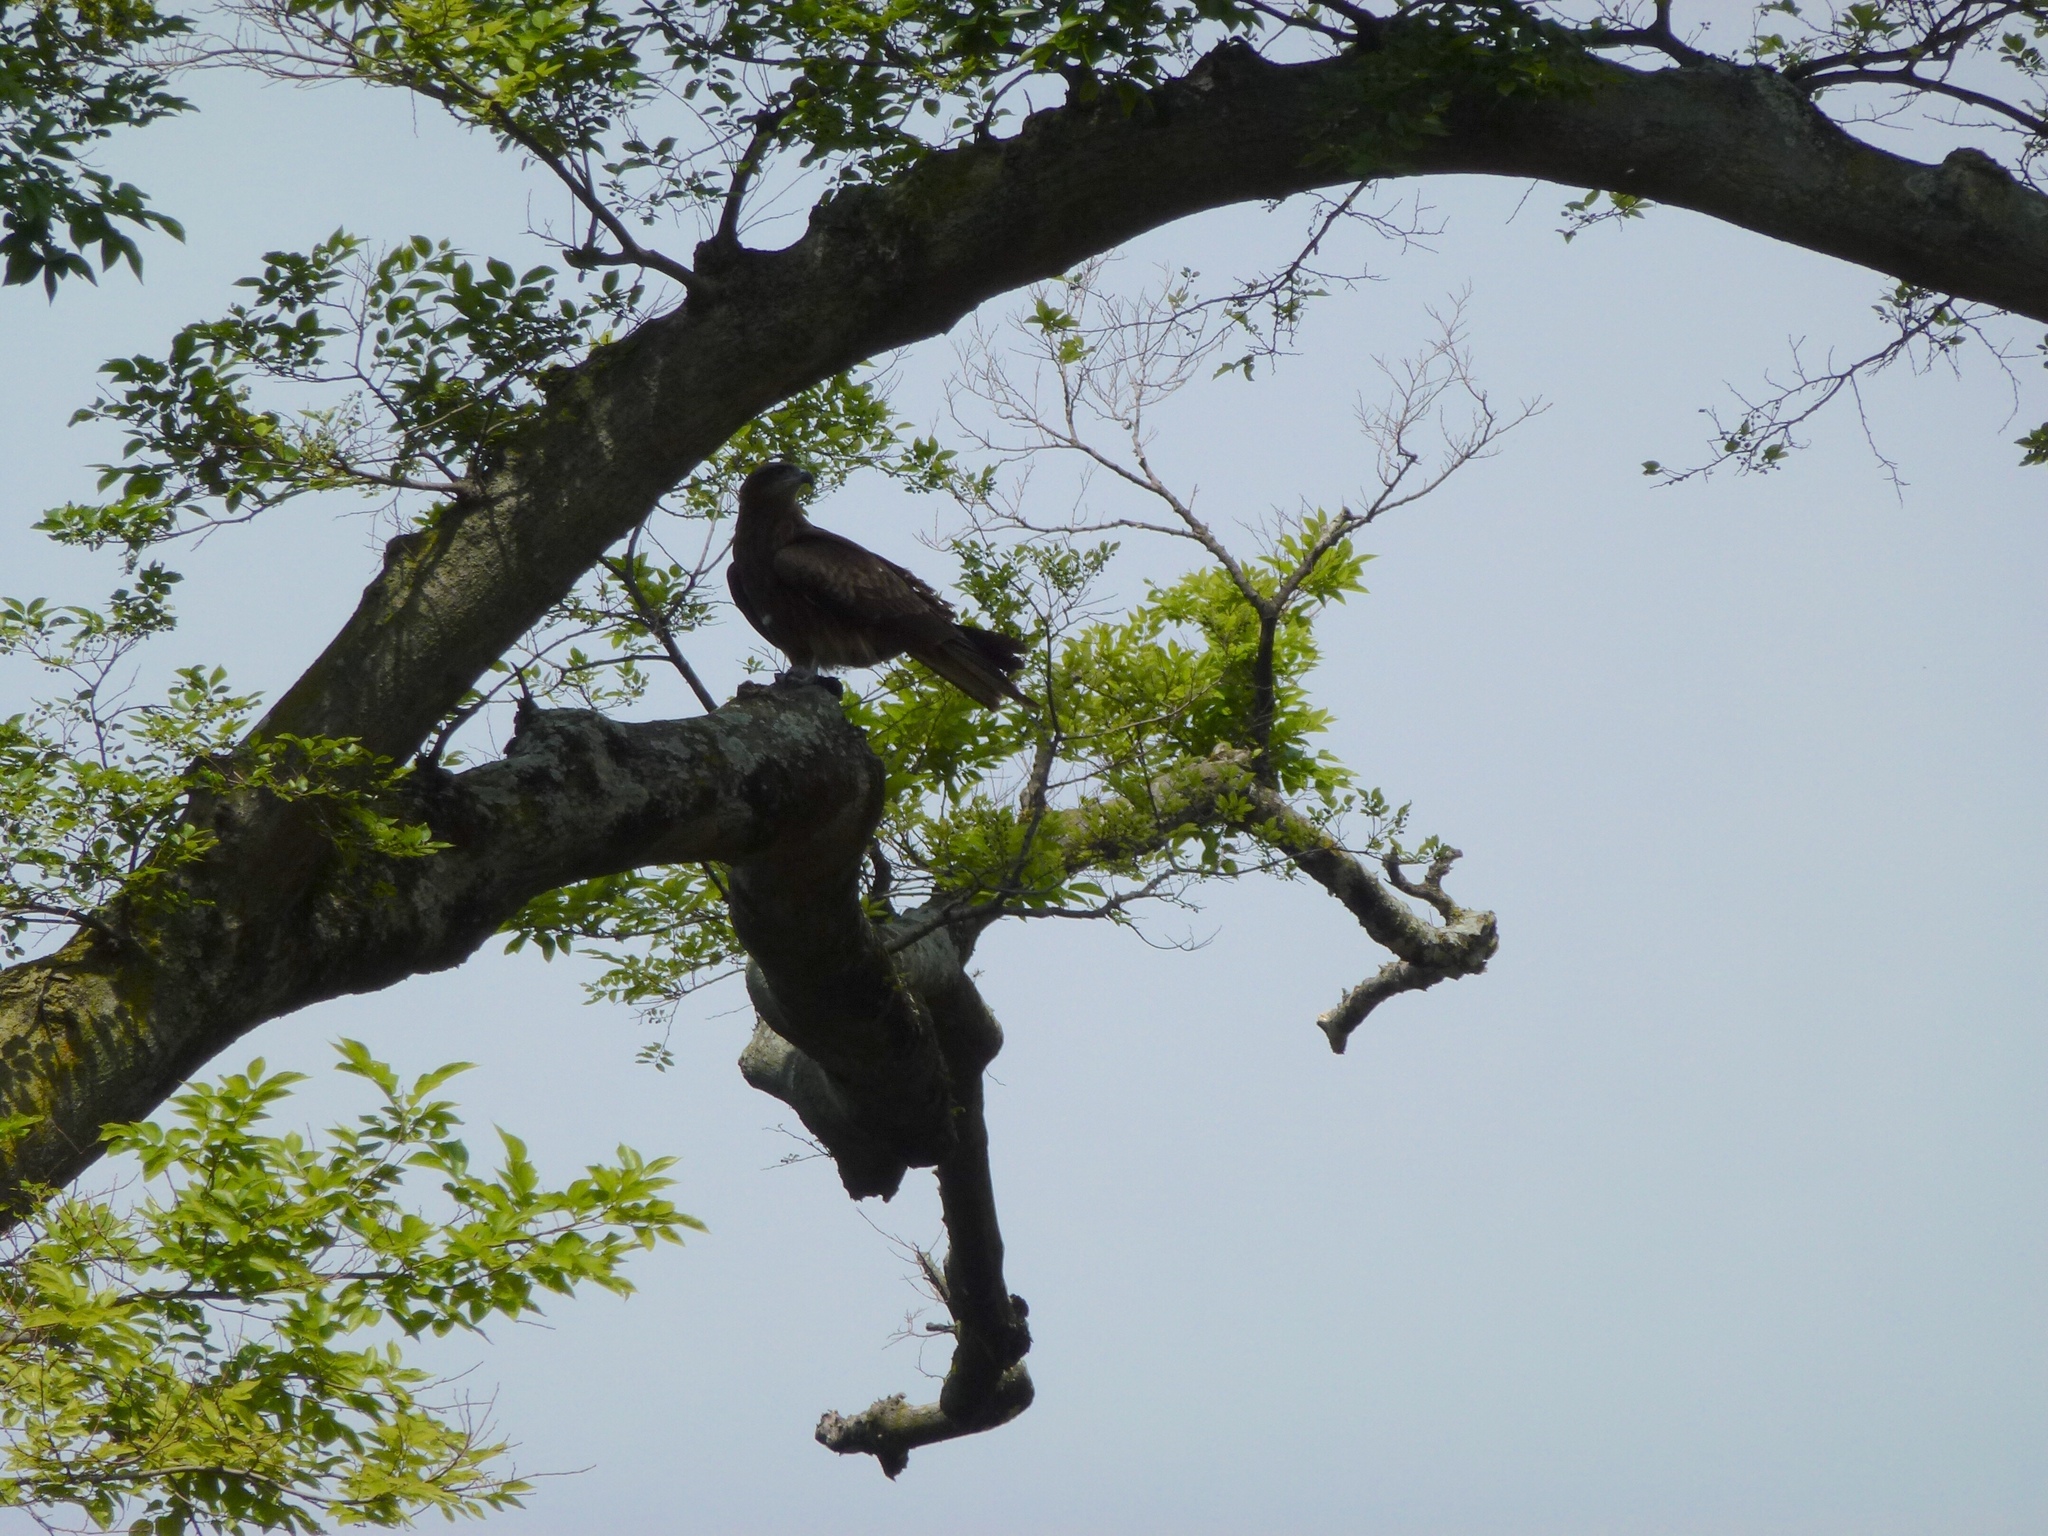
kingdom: Animalia
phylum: Chordata
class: Aves
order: Accipitriformes
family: Accipitridae
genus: Milvus
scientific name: Milvus migrans
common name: Black kite
